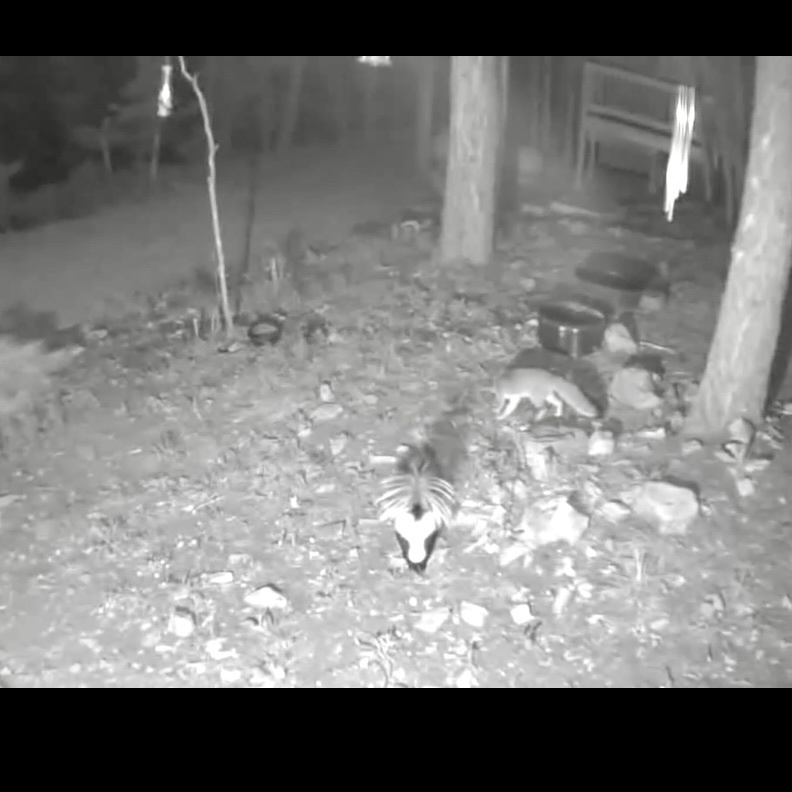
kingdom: Animalia
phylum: Chordata
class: Mammalia
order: Carnivora
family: Mephitidae
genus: Mephitis
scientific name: Mephitis mephitis
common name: Striped skunk
